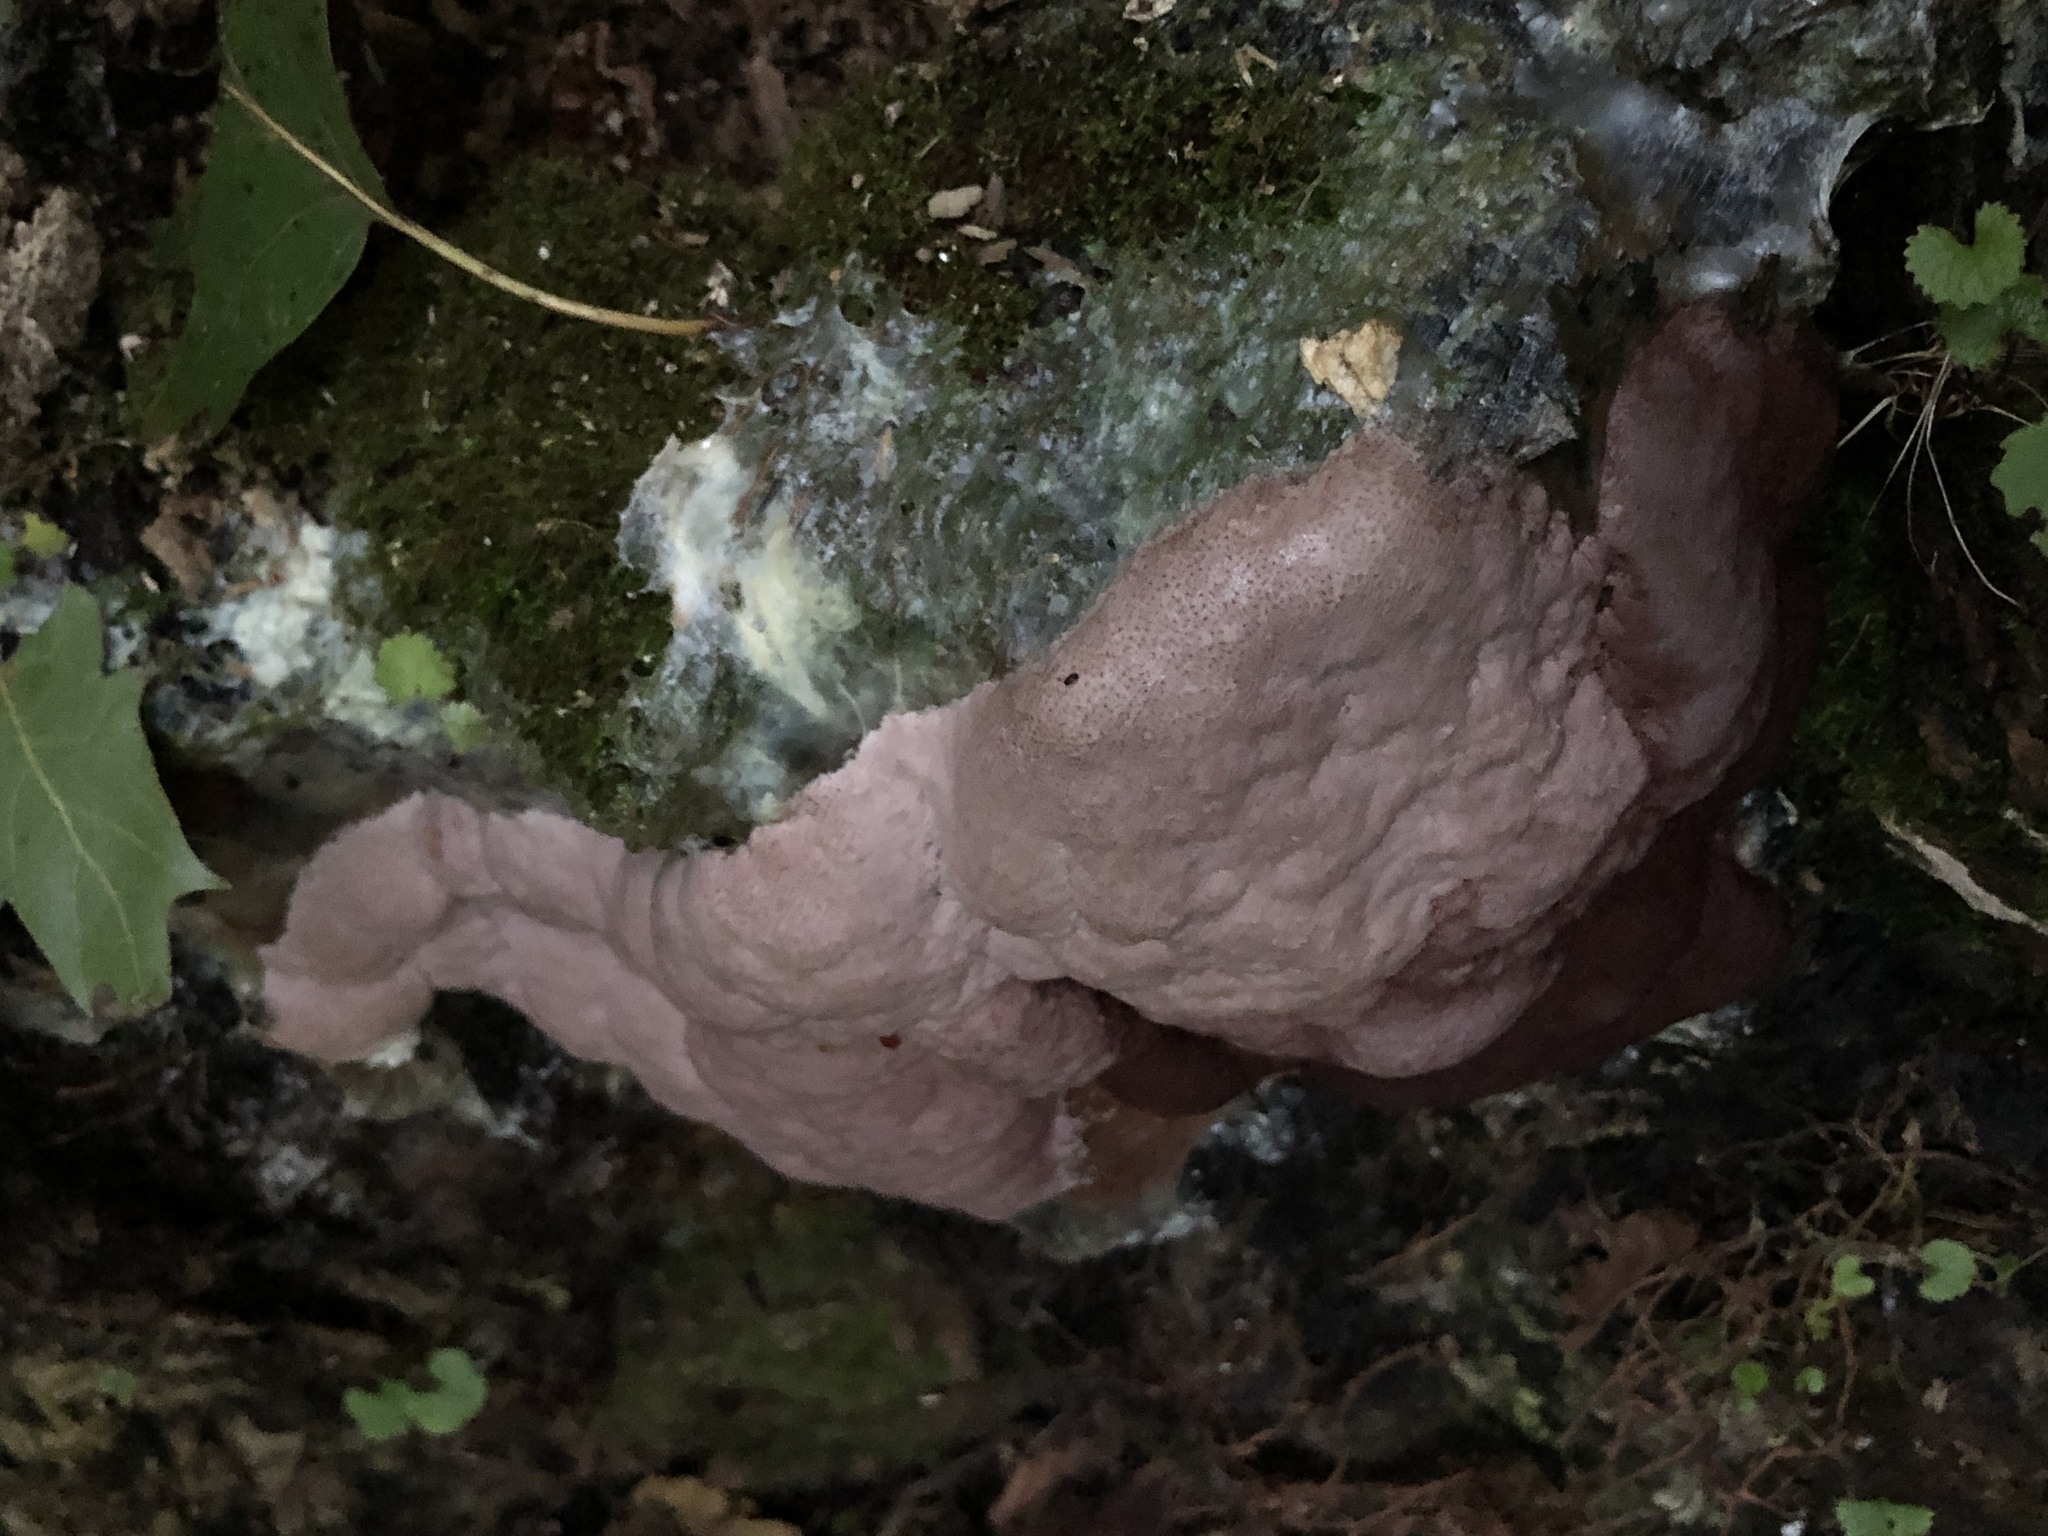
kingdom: Protozoa
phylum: Mycetozoa
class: Myxomycetes
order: Stemonitidales
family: Stemonitidaceae
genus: Brefeldia
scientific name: Brefeldia maxima
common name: Tapioca slime mold
